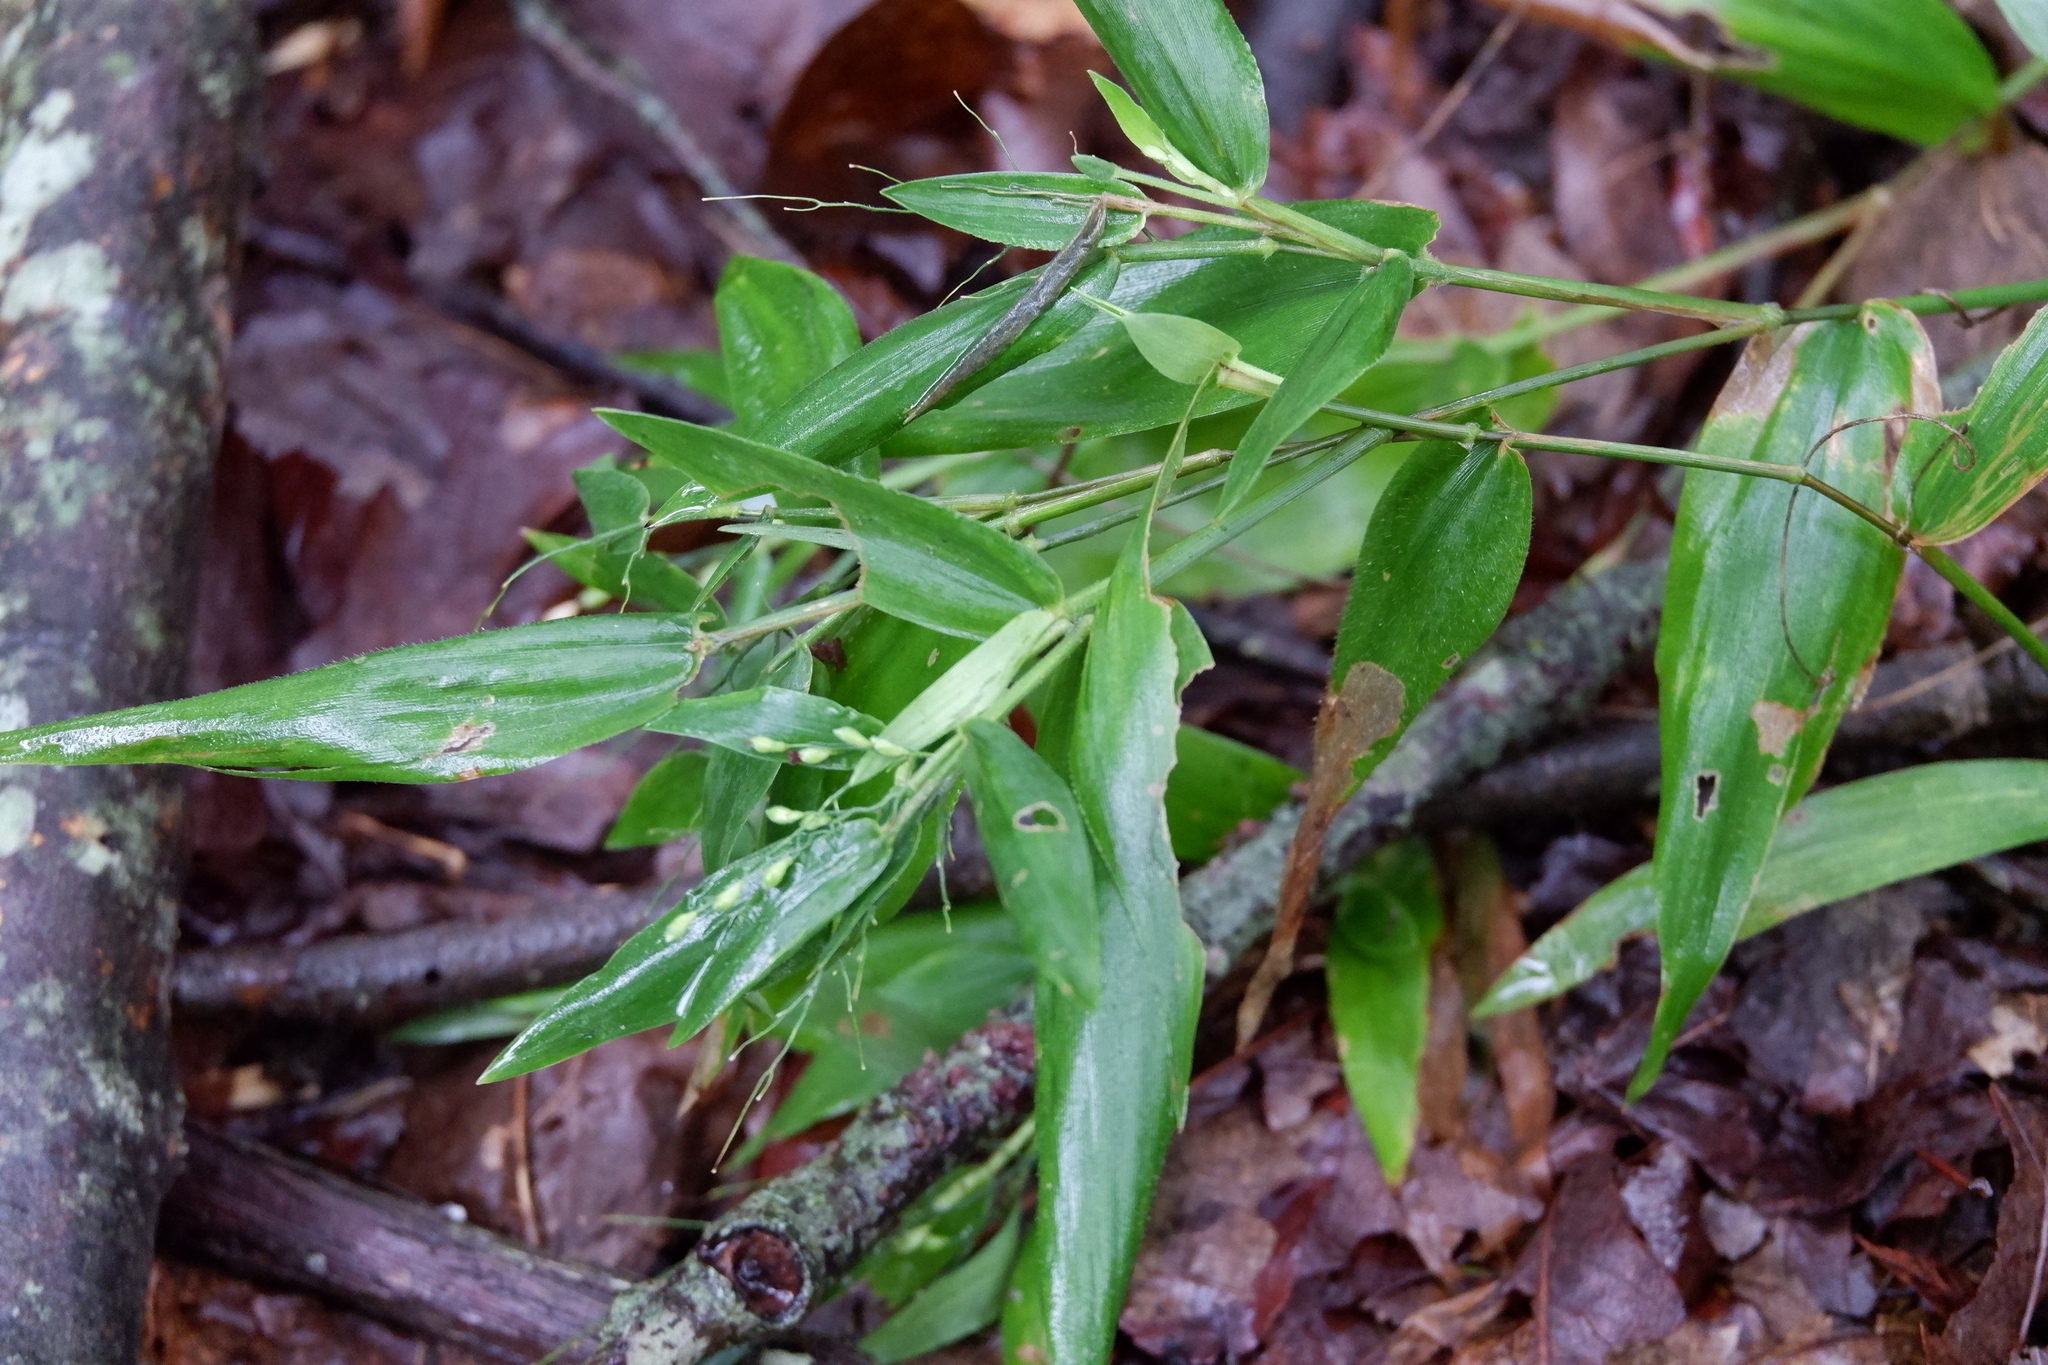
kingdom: Plantae
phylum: Tracheophyta
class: Liliopsida
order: Poales
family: Poaceae
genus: Dichanthelium
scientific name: Dichanthelium commutatum
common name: Variable witchgrass
